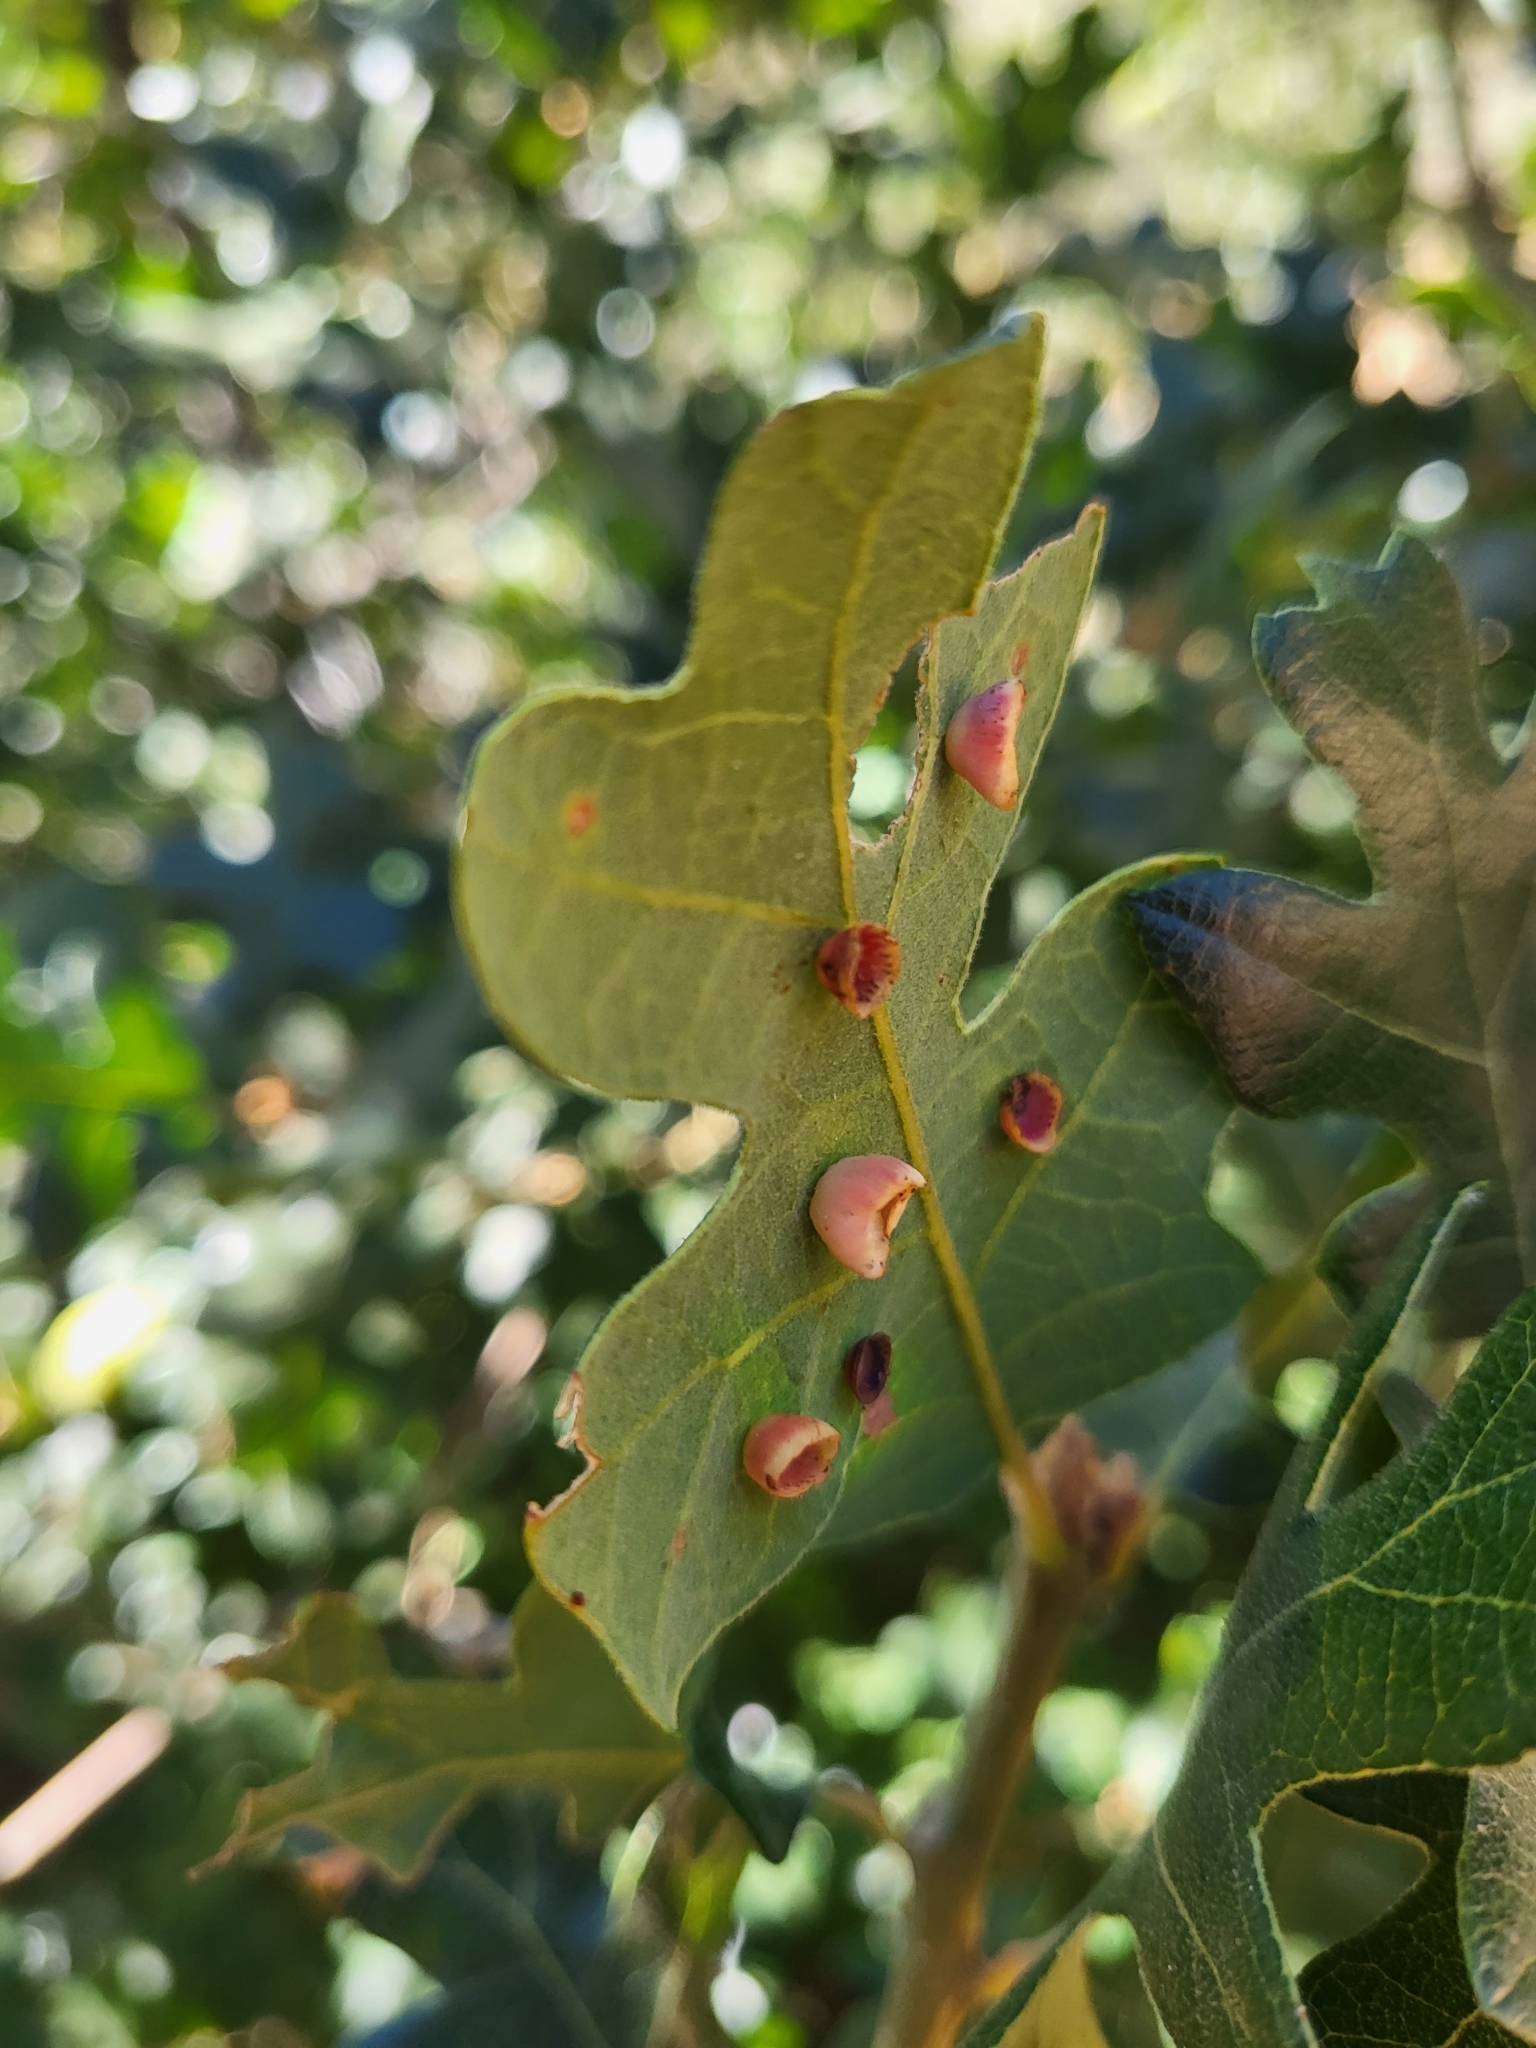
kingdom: Animalia
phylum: Arthropoda
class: Insecta
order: Hymenoptera
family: Cynipidae
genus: Andricus
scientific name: Andricus
